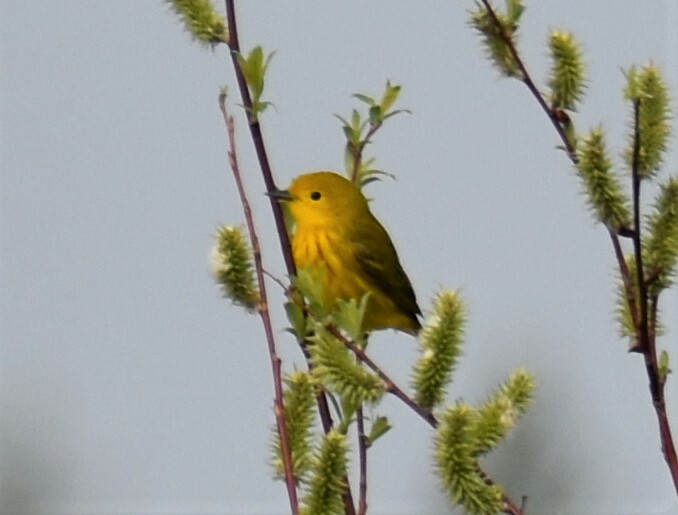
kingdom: Animalia
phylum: Chordata
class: Aves
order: Passeriformes
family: Parulidae
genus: Setophaga
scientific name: Setophaga petechia
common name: Yellow warbler
